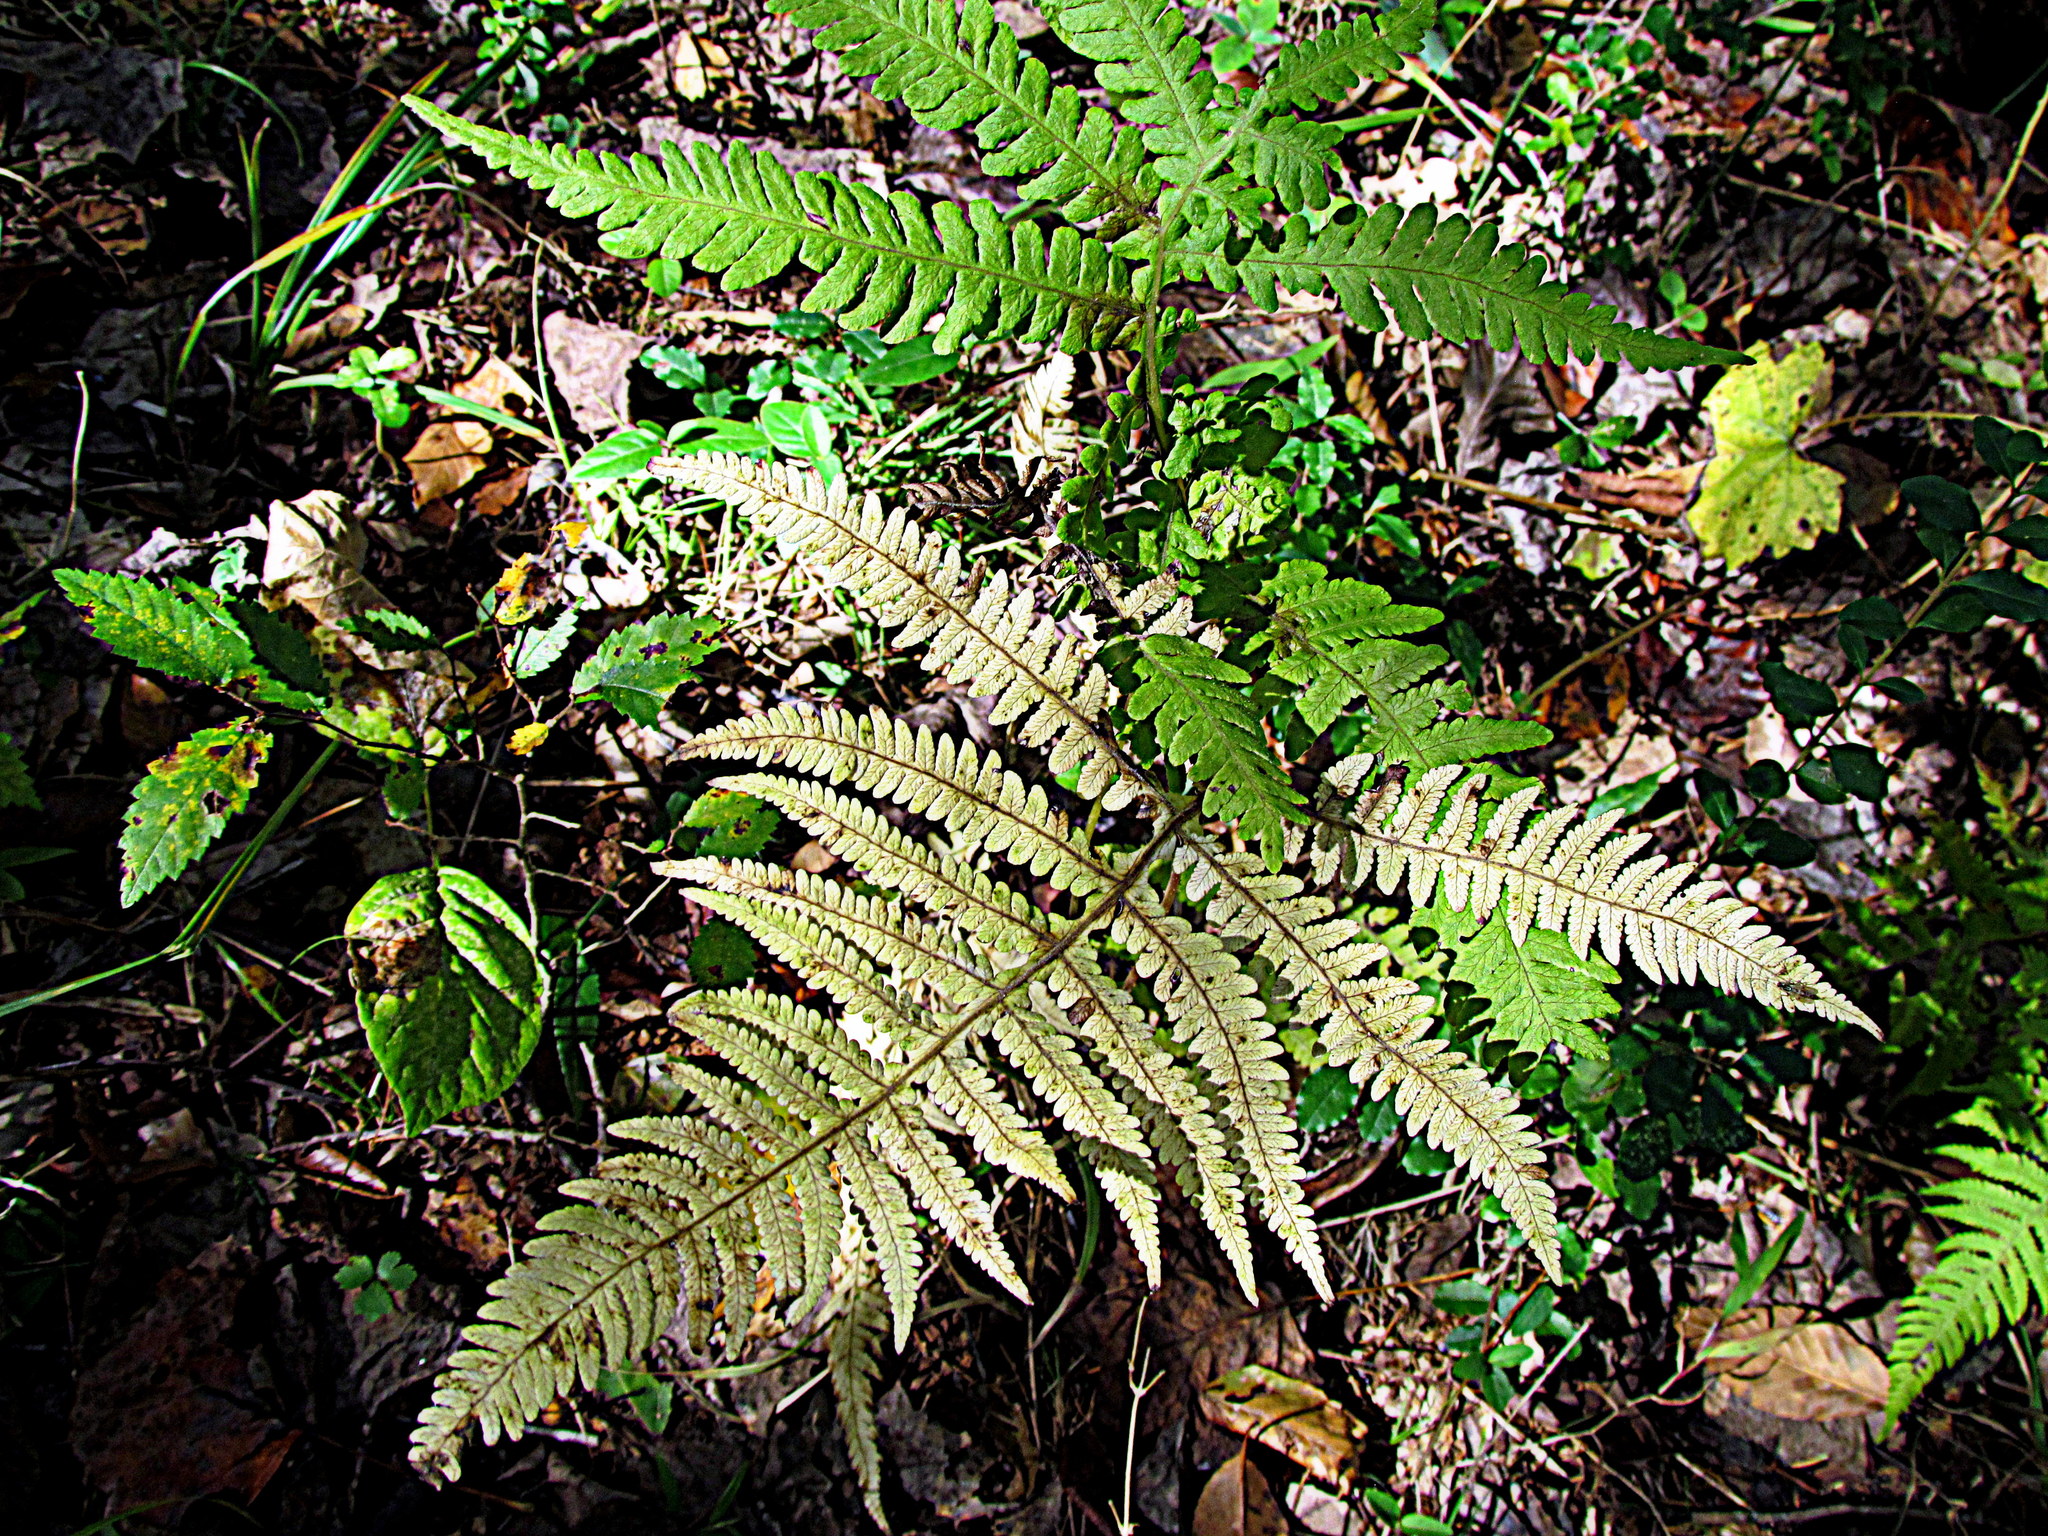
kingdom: Plantae
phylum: Tracheophyta
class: Polypodiopsida
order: Polypodiales
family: Thelypteridaceae
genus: Phegopteris
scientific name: Phegopteris hexagonoptera
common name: Broad beech fern
